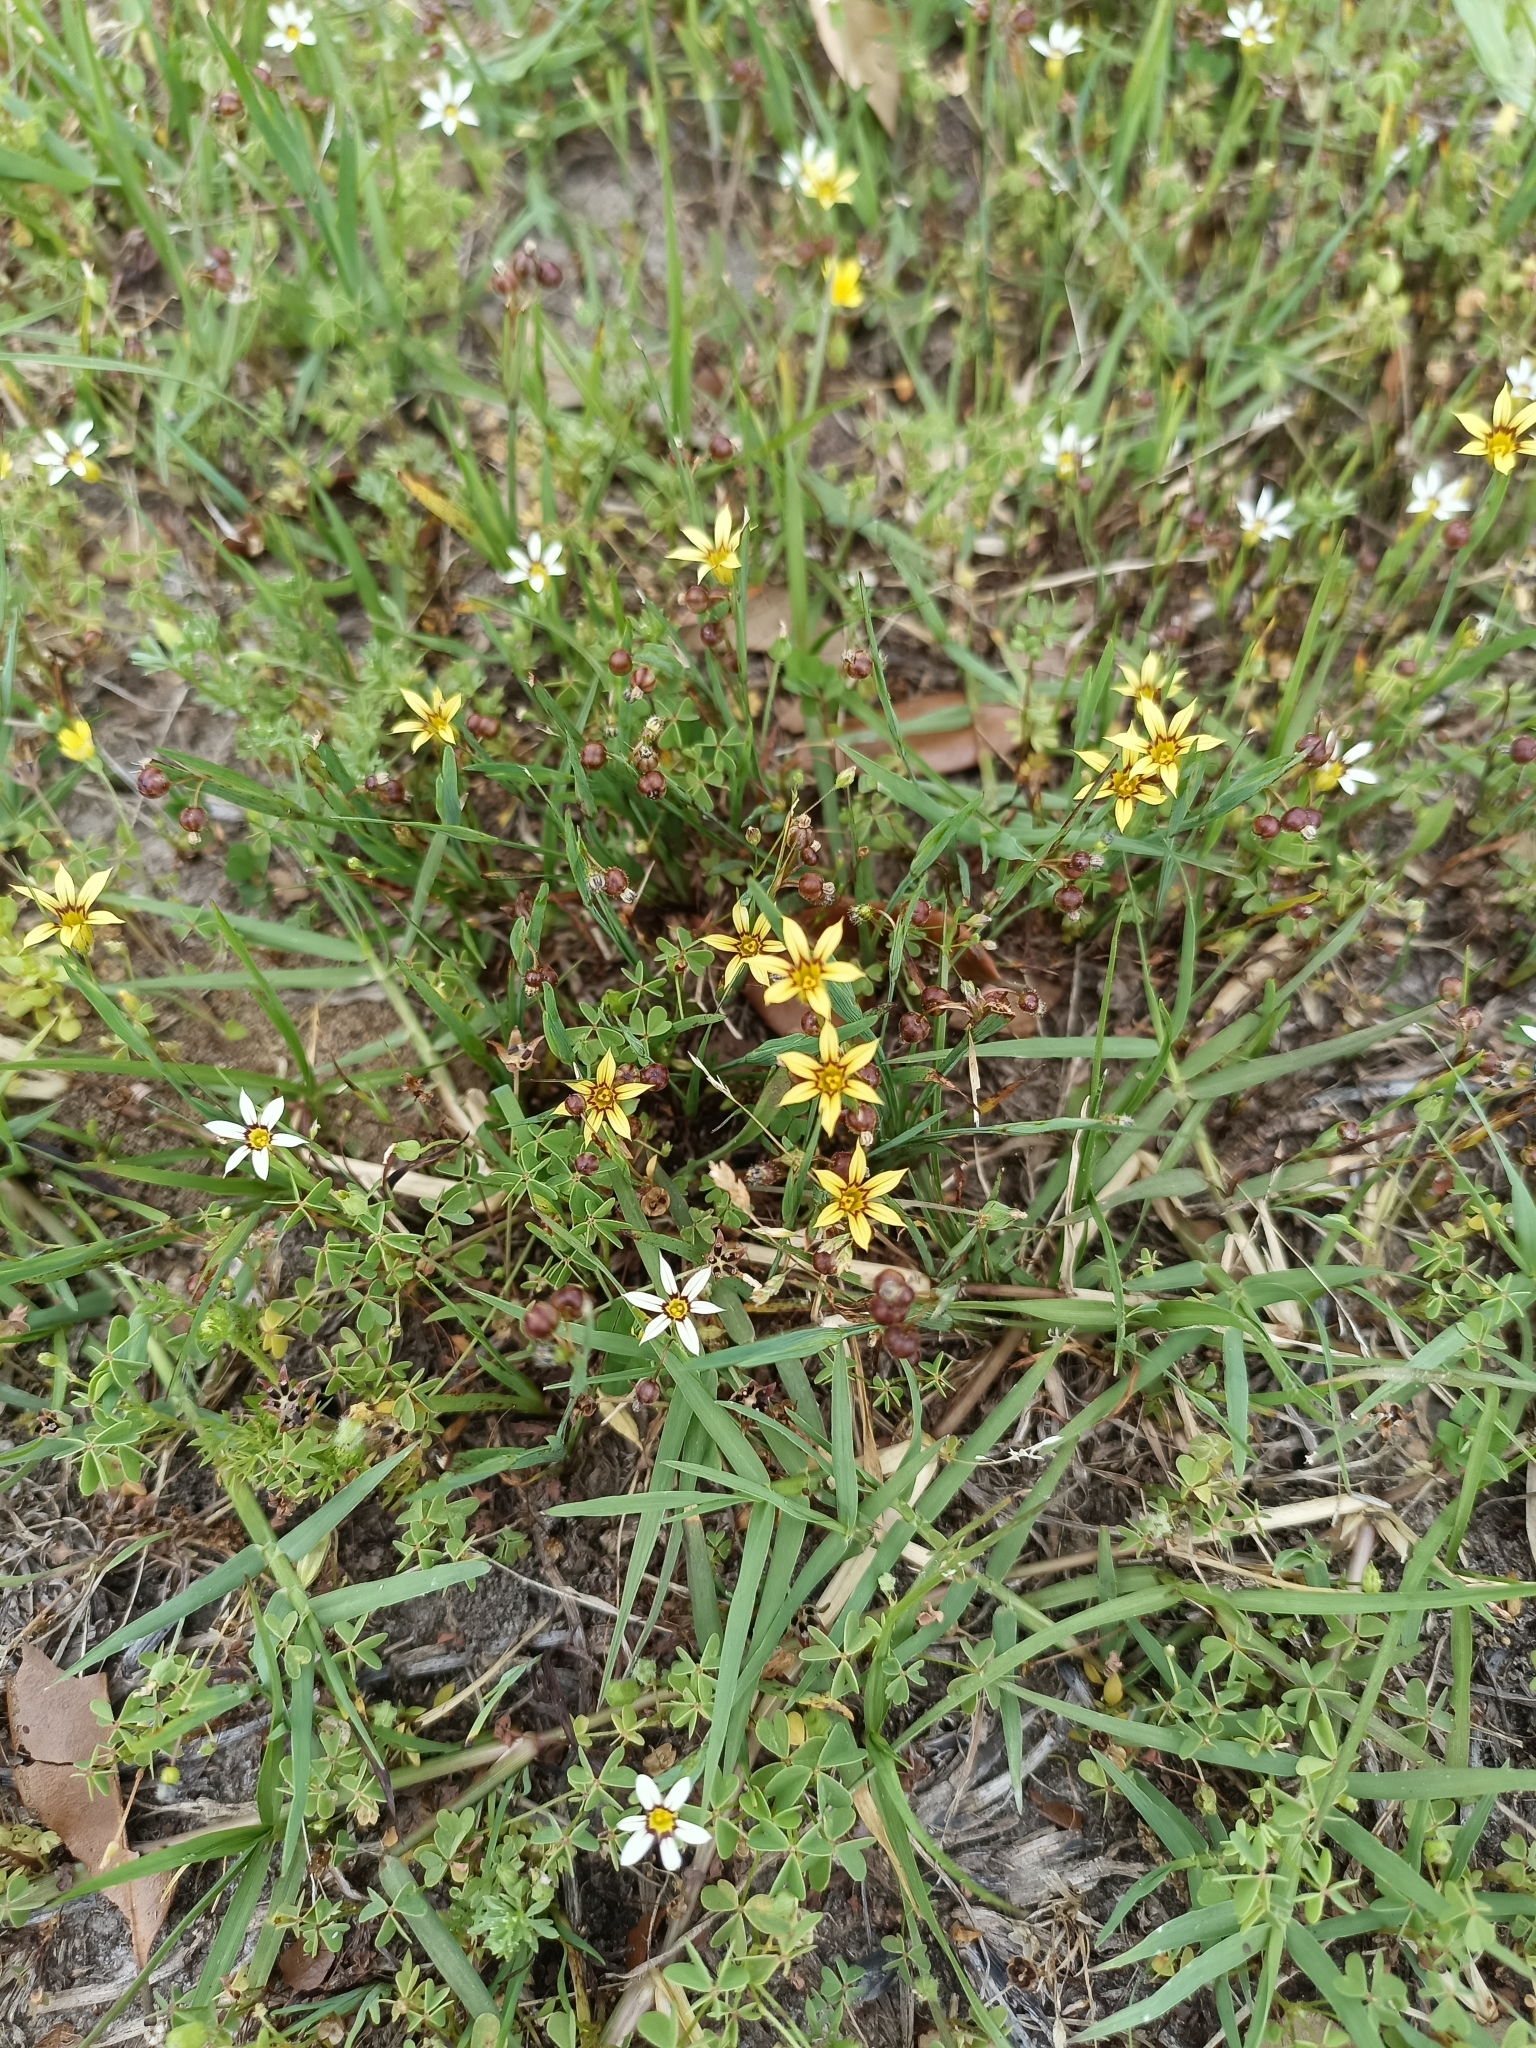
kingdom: Plantae
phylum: Tracheophyta
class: Liliopsida
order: Asparagales
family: Iridaceae
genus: Sisyrinchium
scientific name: Sisyrinchium micranthum
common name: Bermuda pigroot
